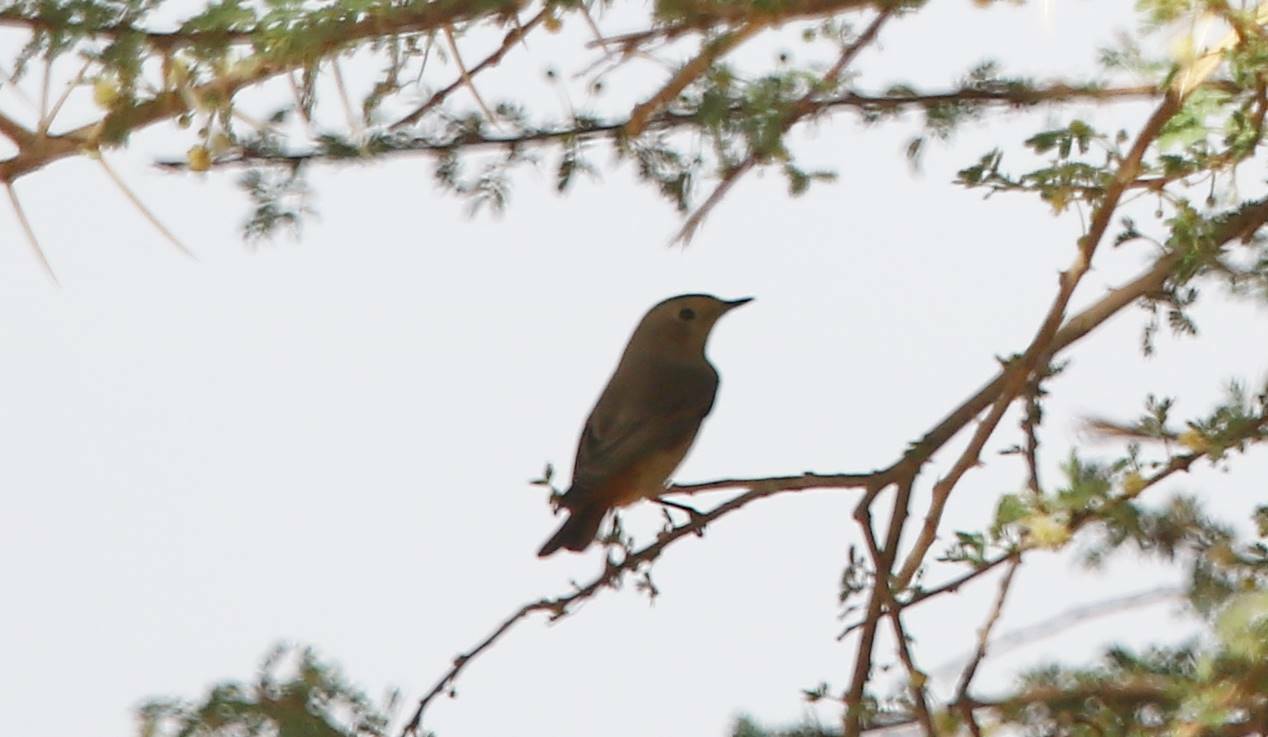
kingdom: Animalia
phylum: Chordata
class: Aves
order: Passeriformes
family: Muscicapidae
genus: Phoenicurus
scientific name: Phoenicurus phoenicurus
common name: Common redstart
